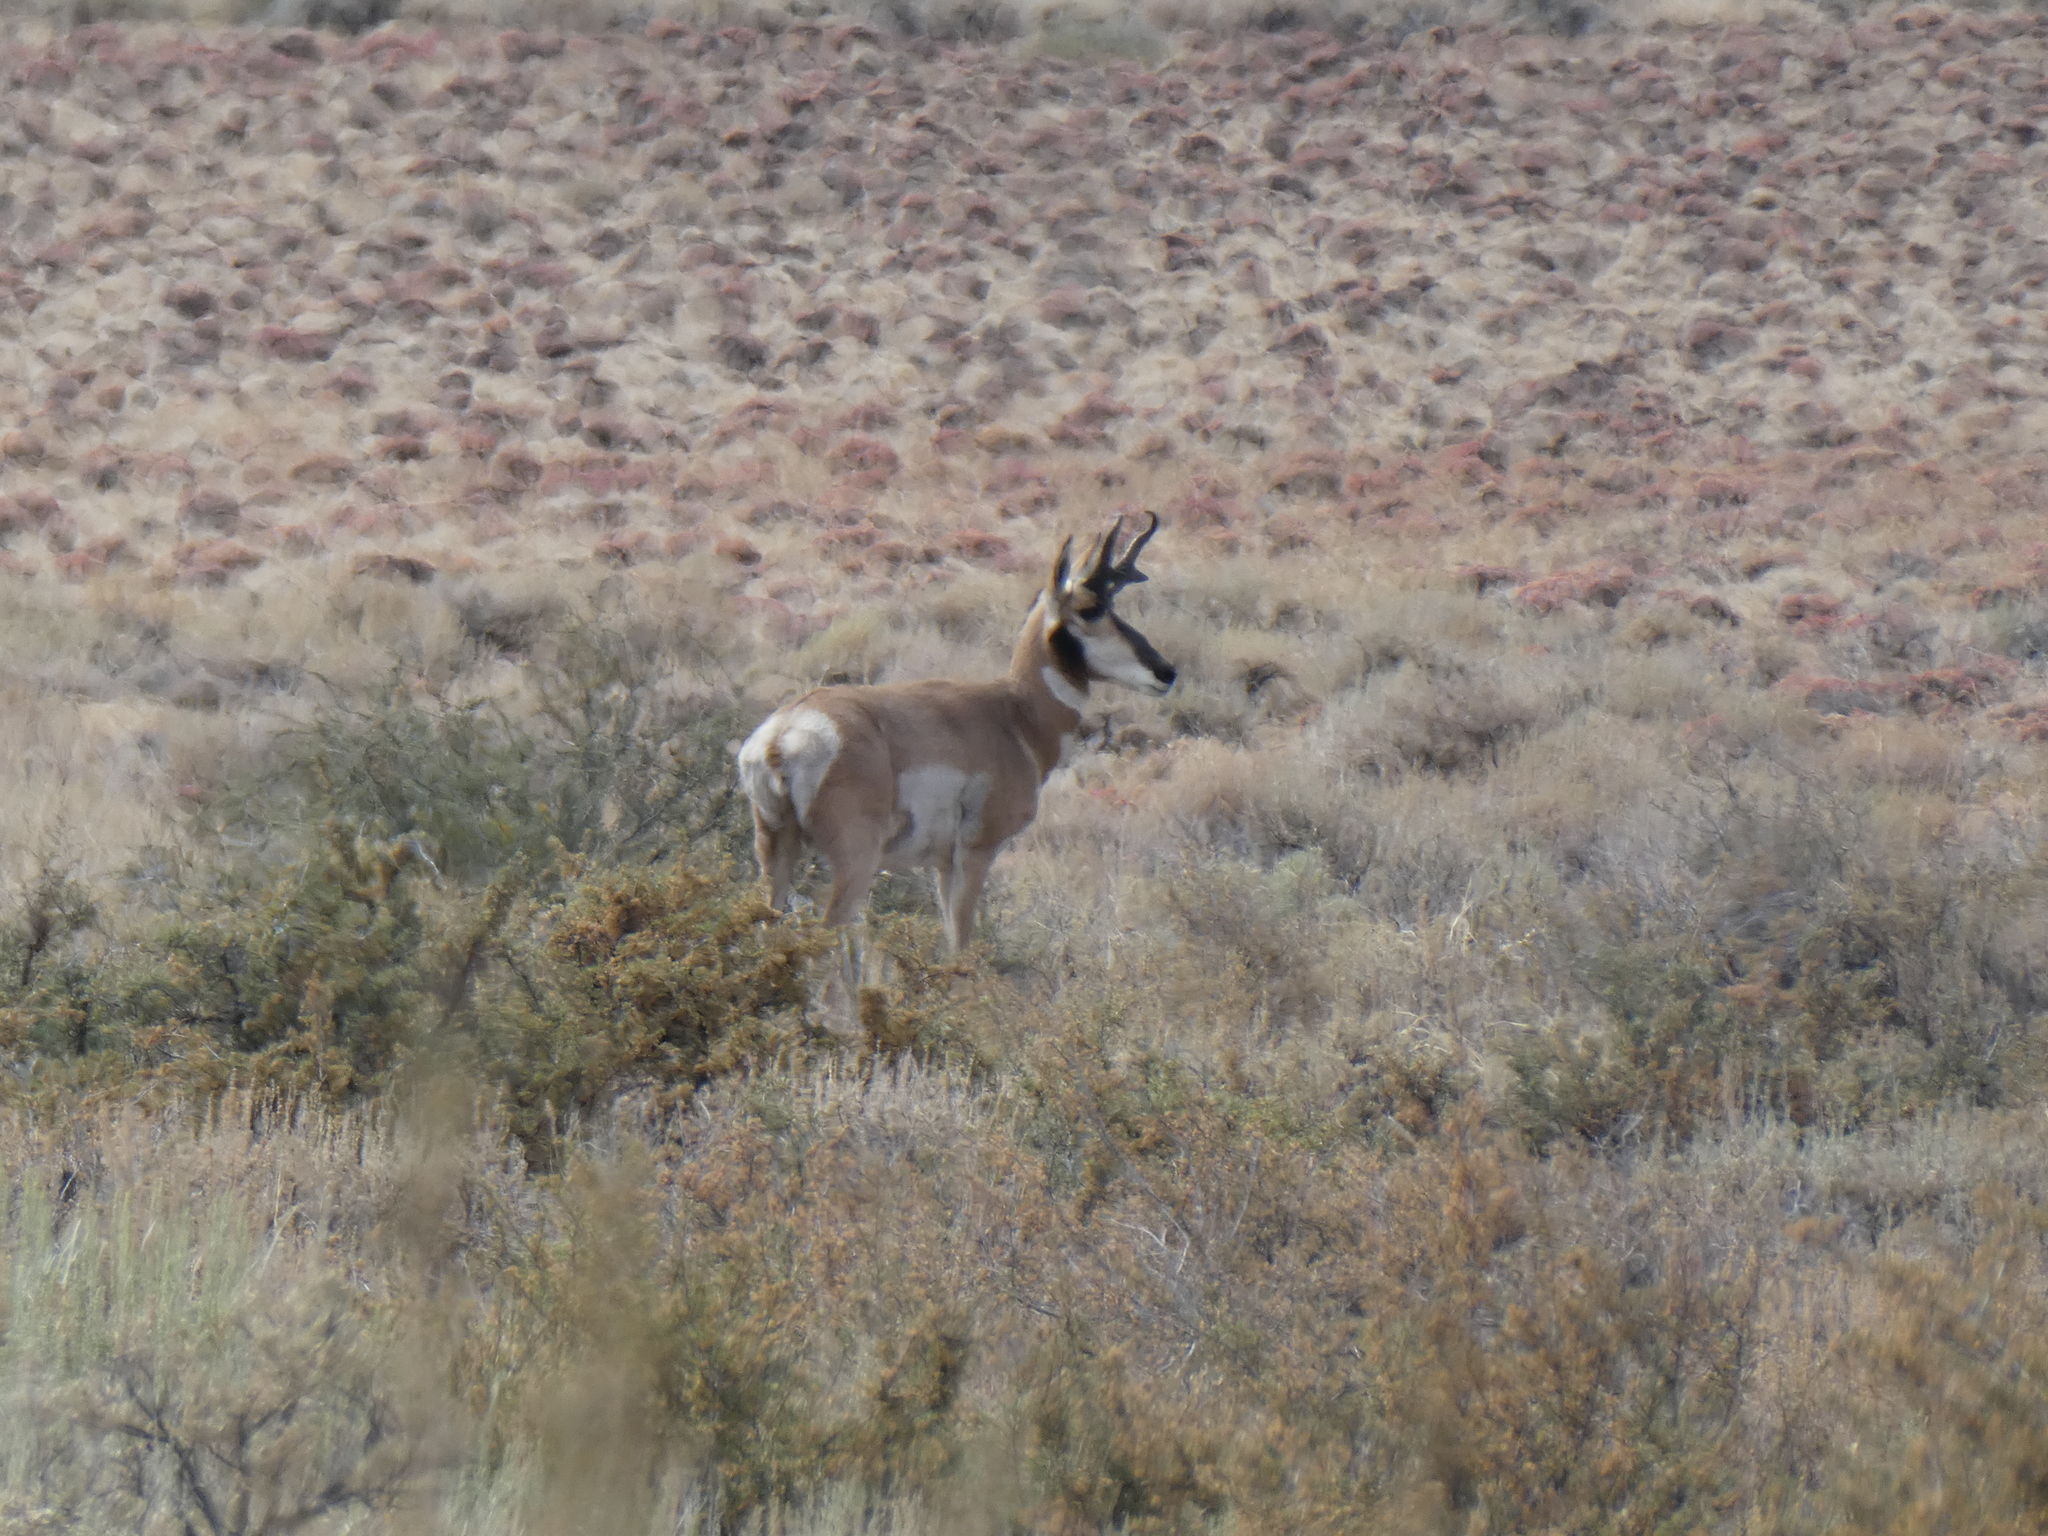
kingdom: Animalia
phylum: Chordata
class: Mammalia
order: Artiodactyla
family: Antilocapridae
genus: Antilocapra
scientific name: Antilocapra americana
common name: Pronghorn
